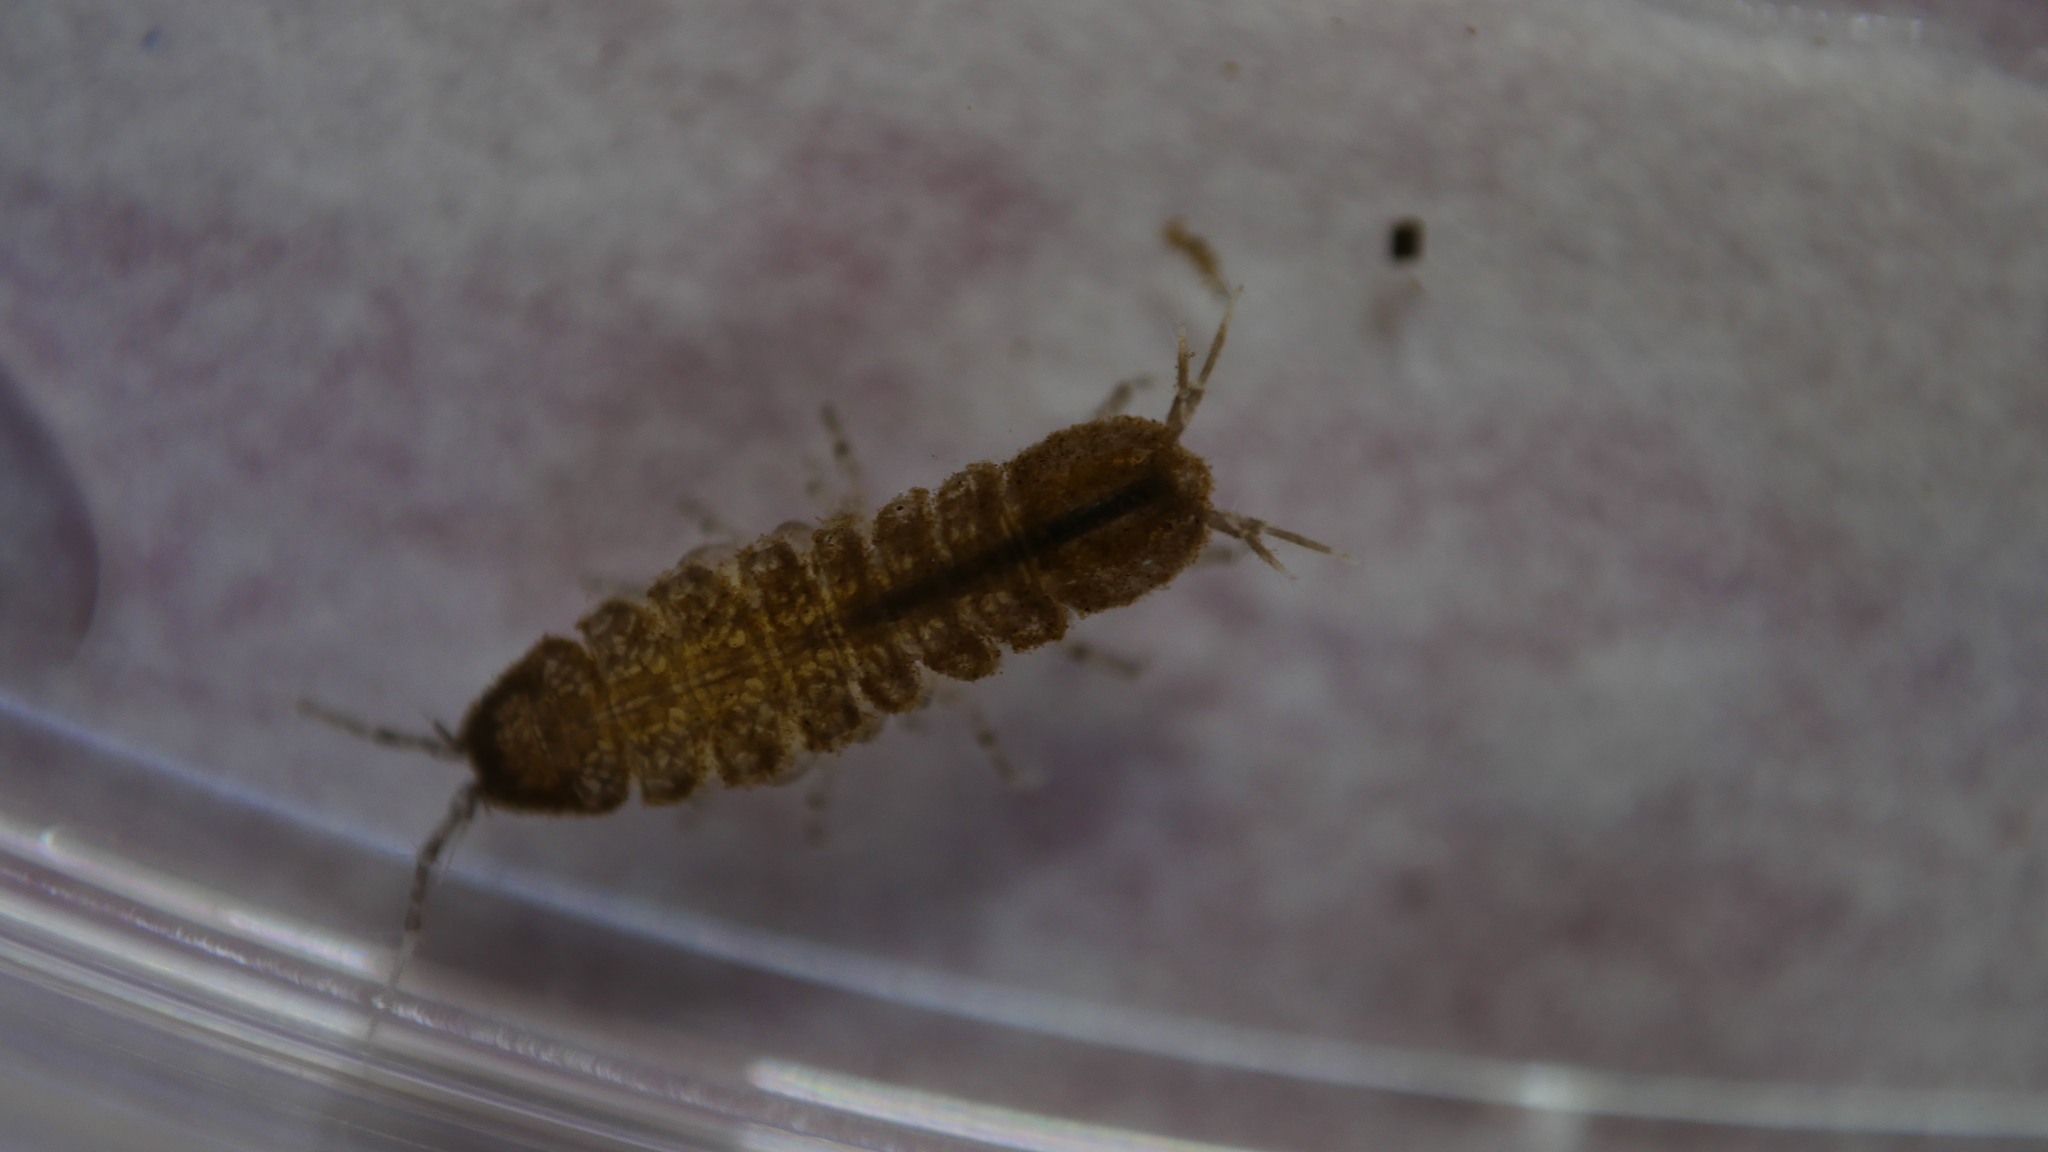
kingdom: Animalia
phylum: Arthropoda
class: Malacostraca
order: Isopoda
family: Asellidae
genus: Caecidotea
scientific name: Caecidotea
